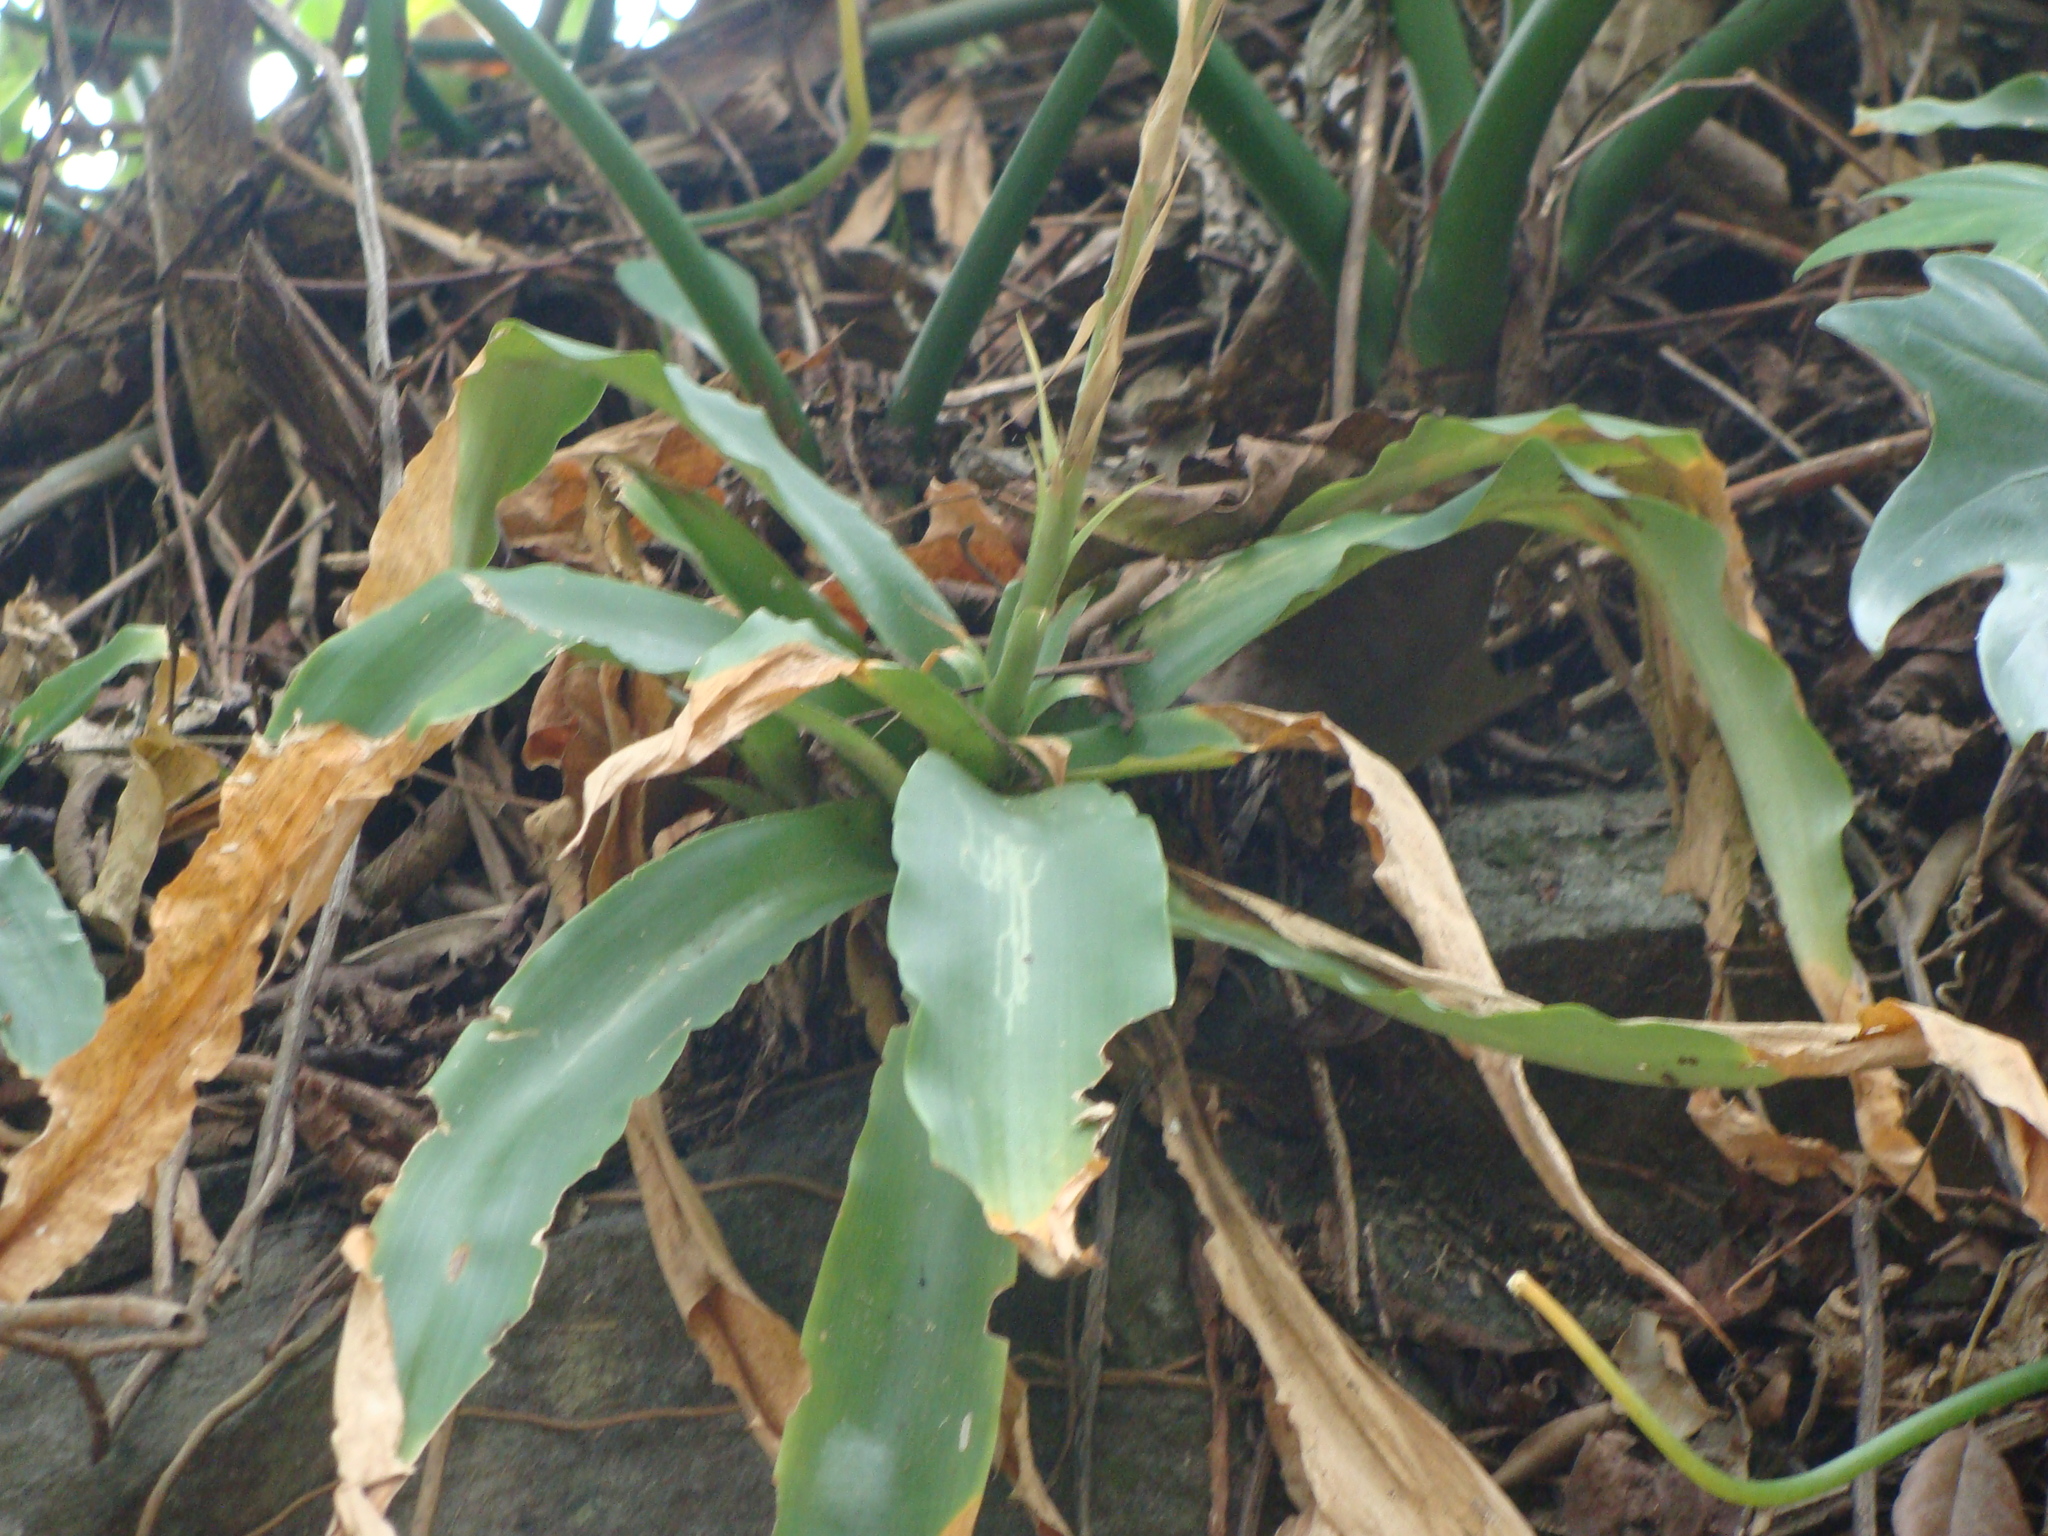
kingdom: Plantae
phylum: Tracheophyta
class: Liliopsida
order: Poales
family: Bromeliaceae
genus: Fosterella
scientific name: Fosterella micrantha
